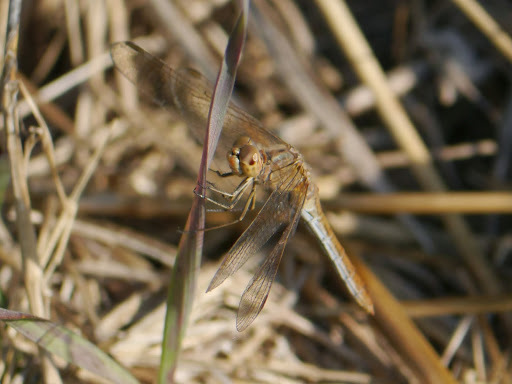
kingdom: Animalia
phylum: Arthropoda
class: Insecta
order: Odonata
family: Libellulidae
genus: Sympetrum
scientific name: Sympetrum meridionale
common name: Southern darter
